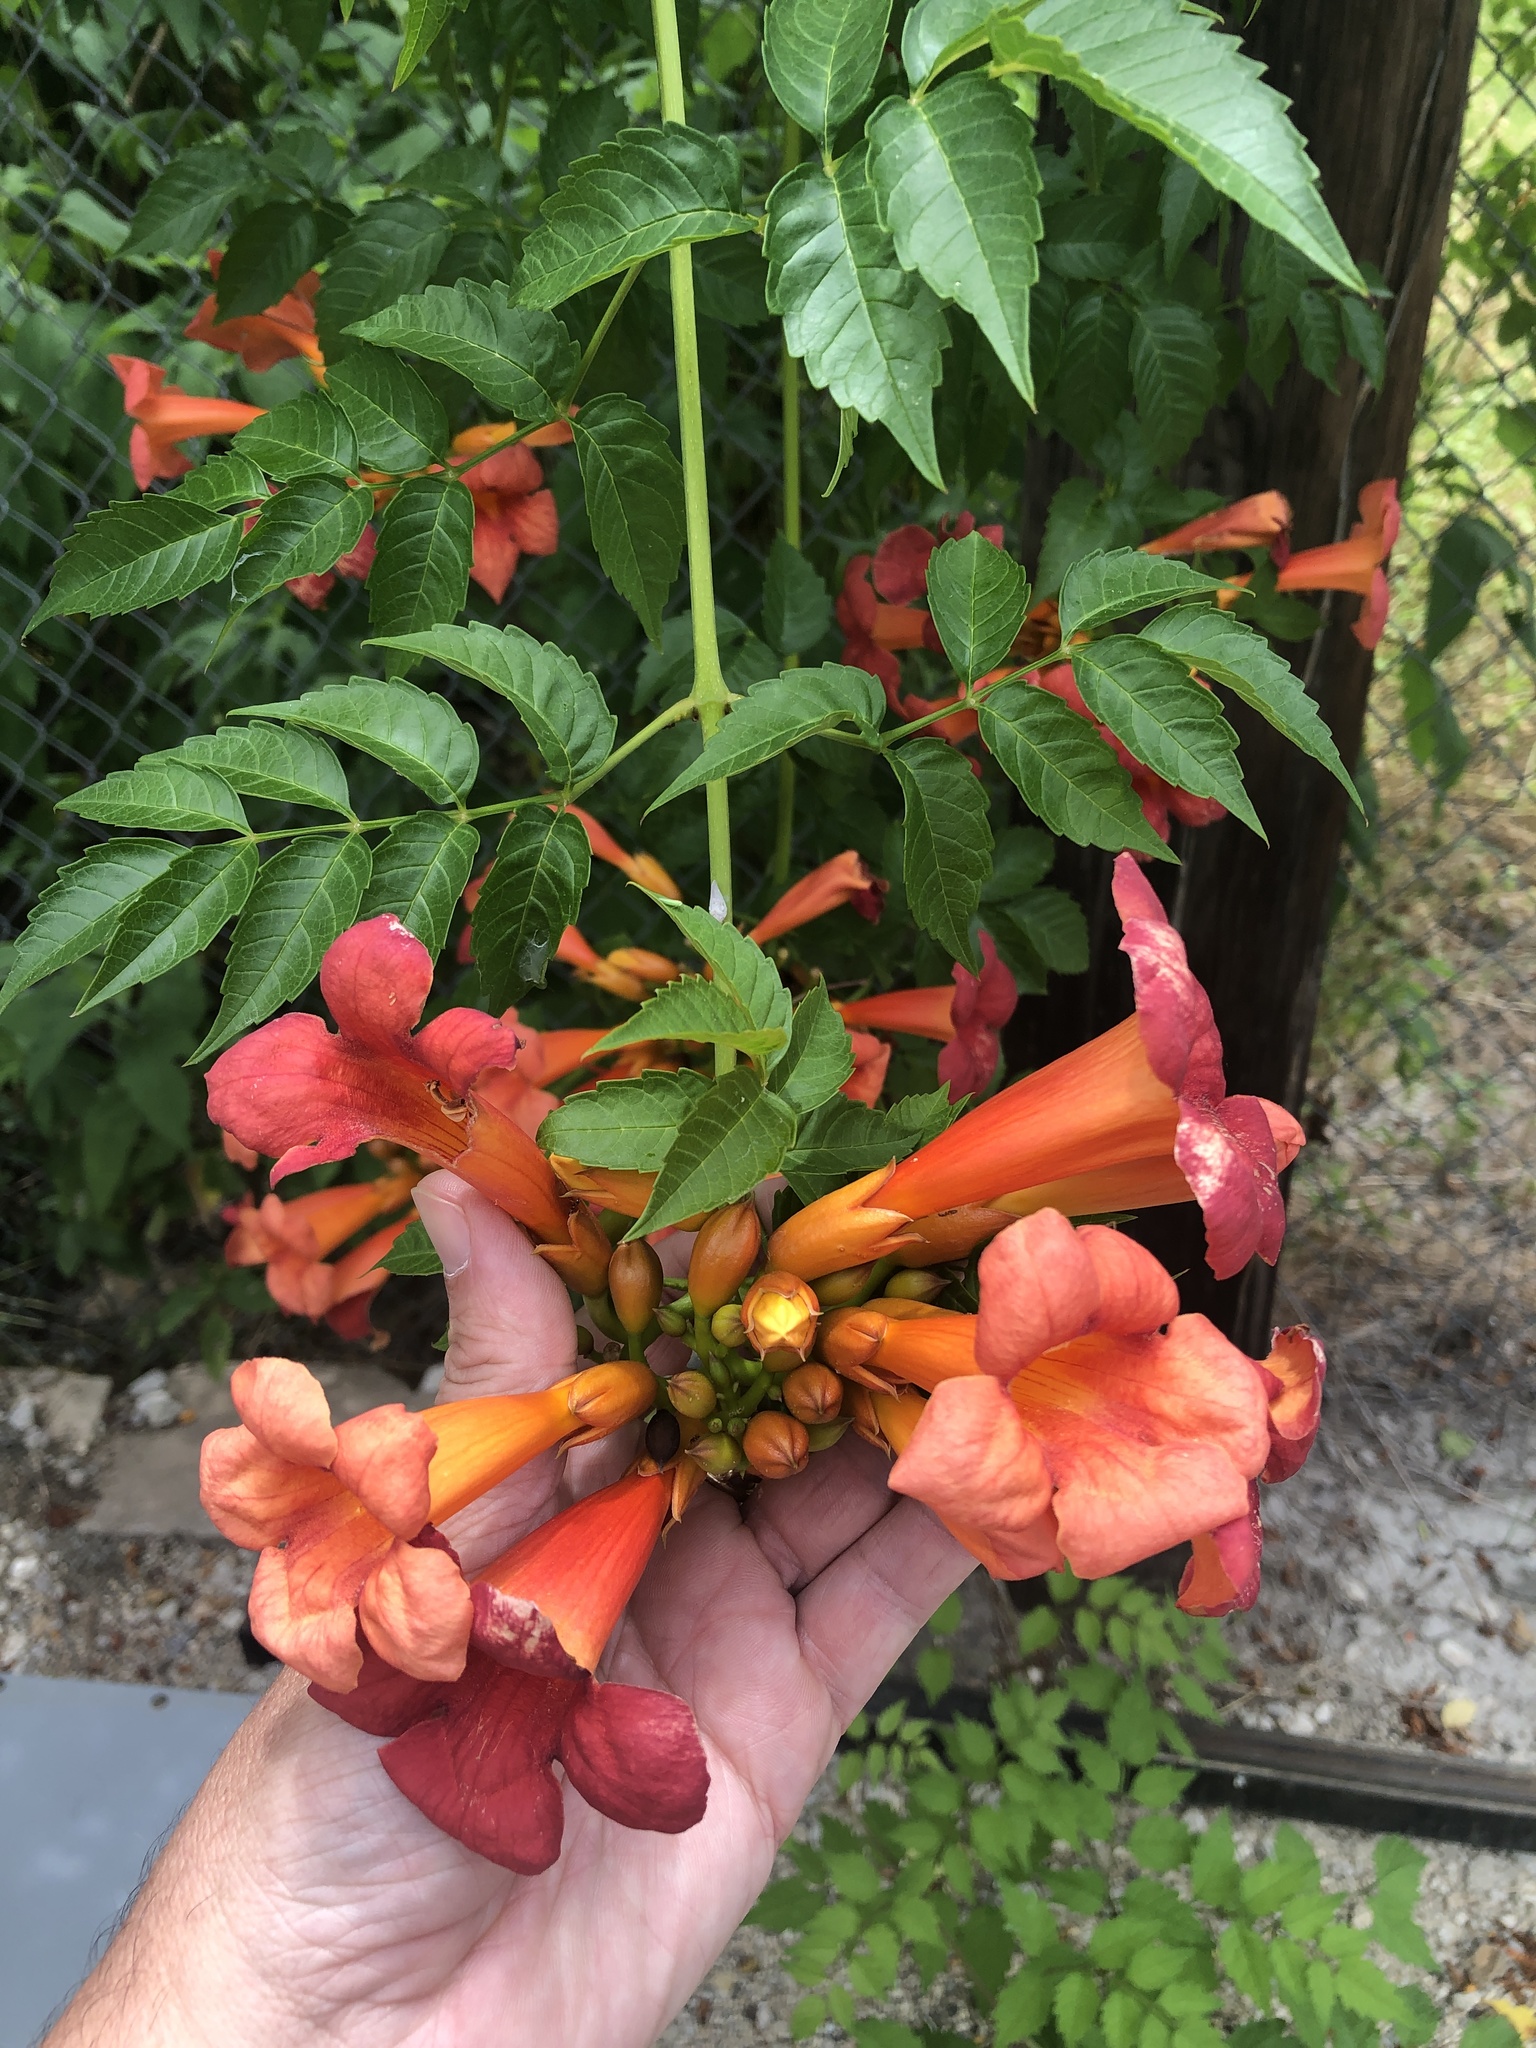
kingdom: Plantae
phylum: Tracheophyta
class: Magnoliopsida
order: Lamiales
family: Bignoniaceae
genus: Campsis
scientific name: Campsis radicans
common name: Trumpet-creeper
